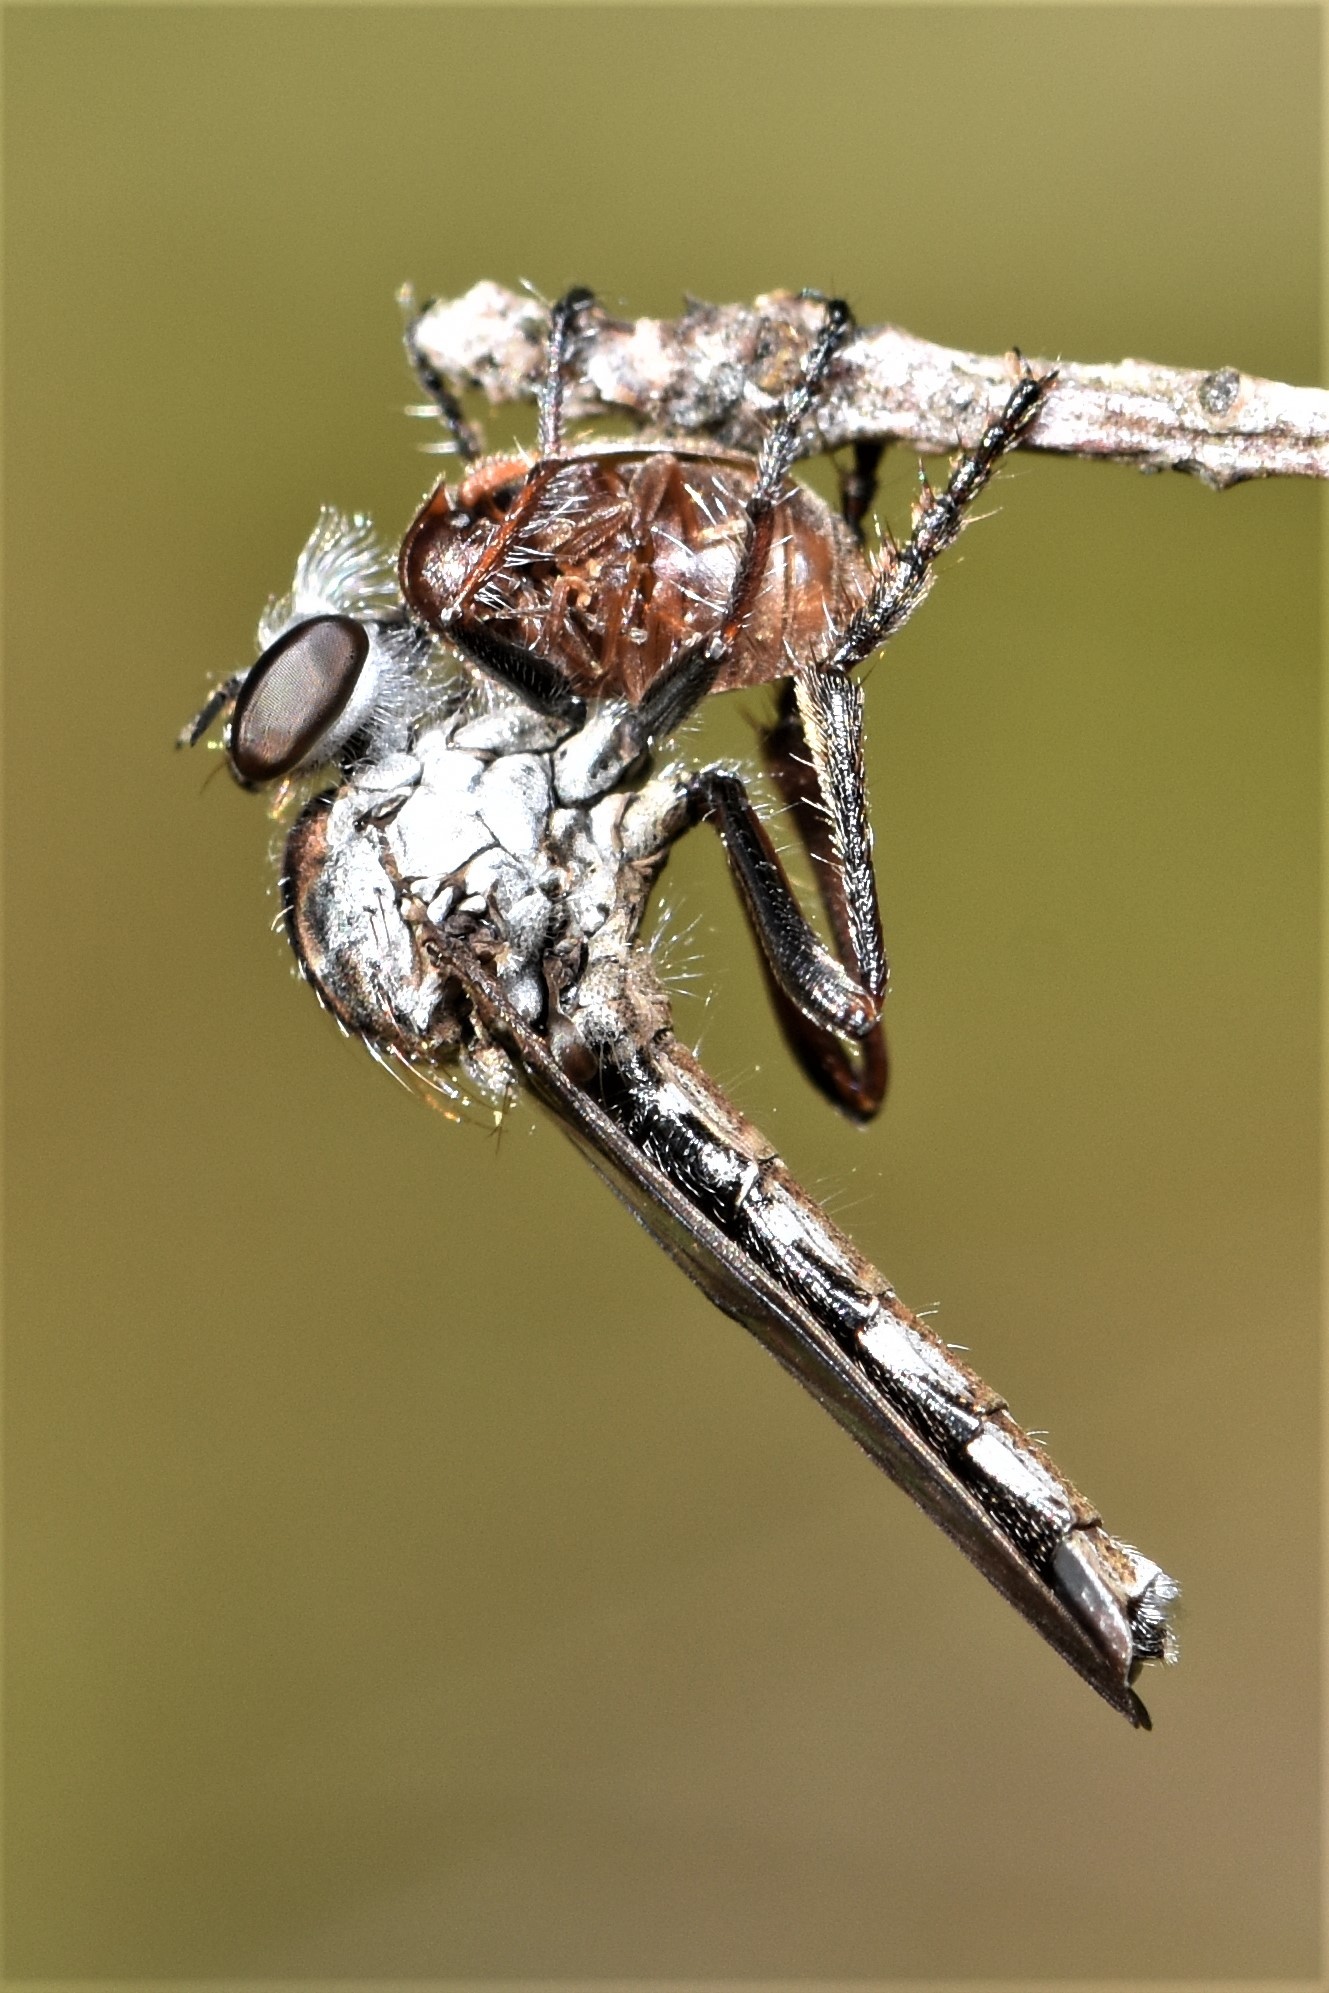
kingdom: Animalia
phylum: Arthropoda
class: Insecta
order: Diptera
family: Asilidae
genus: Nicocles
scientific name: Nicocles canadensis
